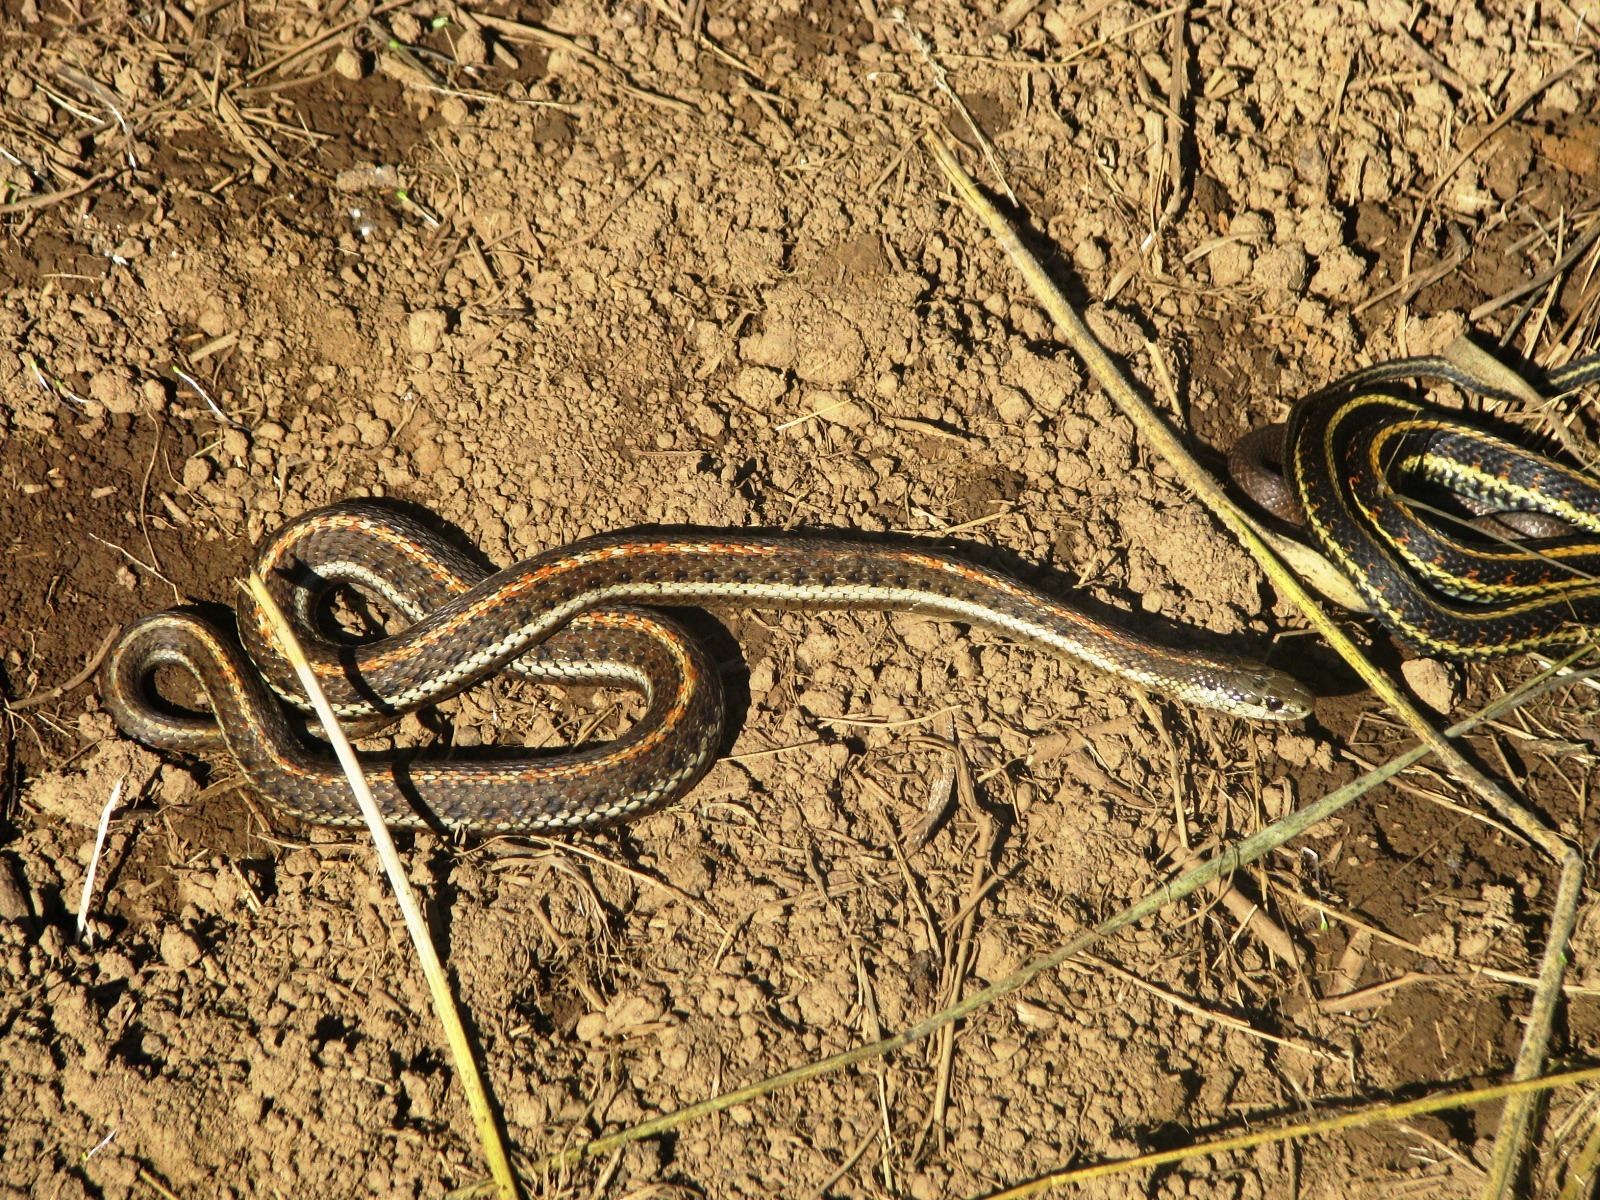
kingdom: Animalia
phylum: Chordata
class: Squamata
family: Colubridae
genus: Thamnophis
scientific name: Thamnophis ordinoides
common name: Northwestern garter snake
